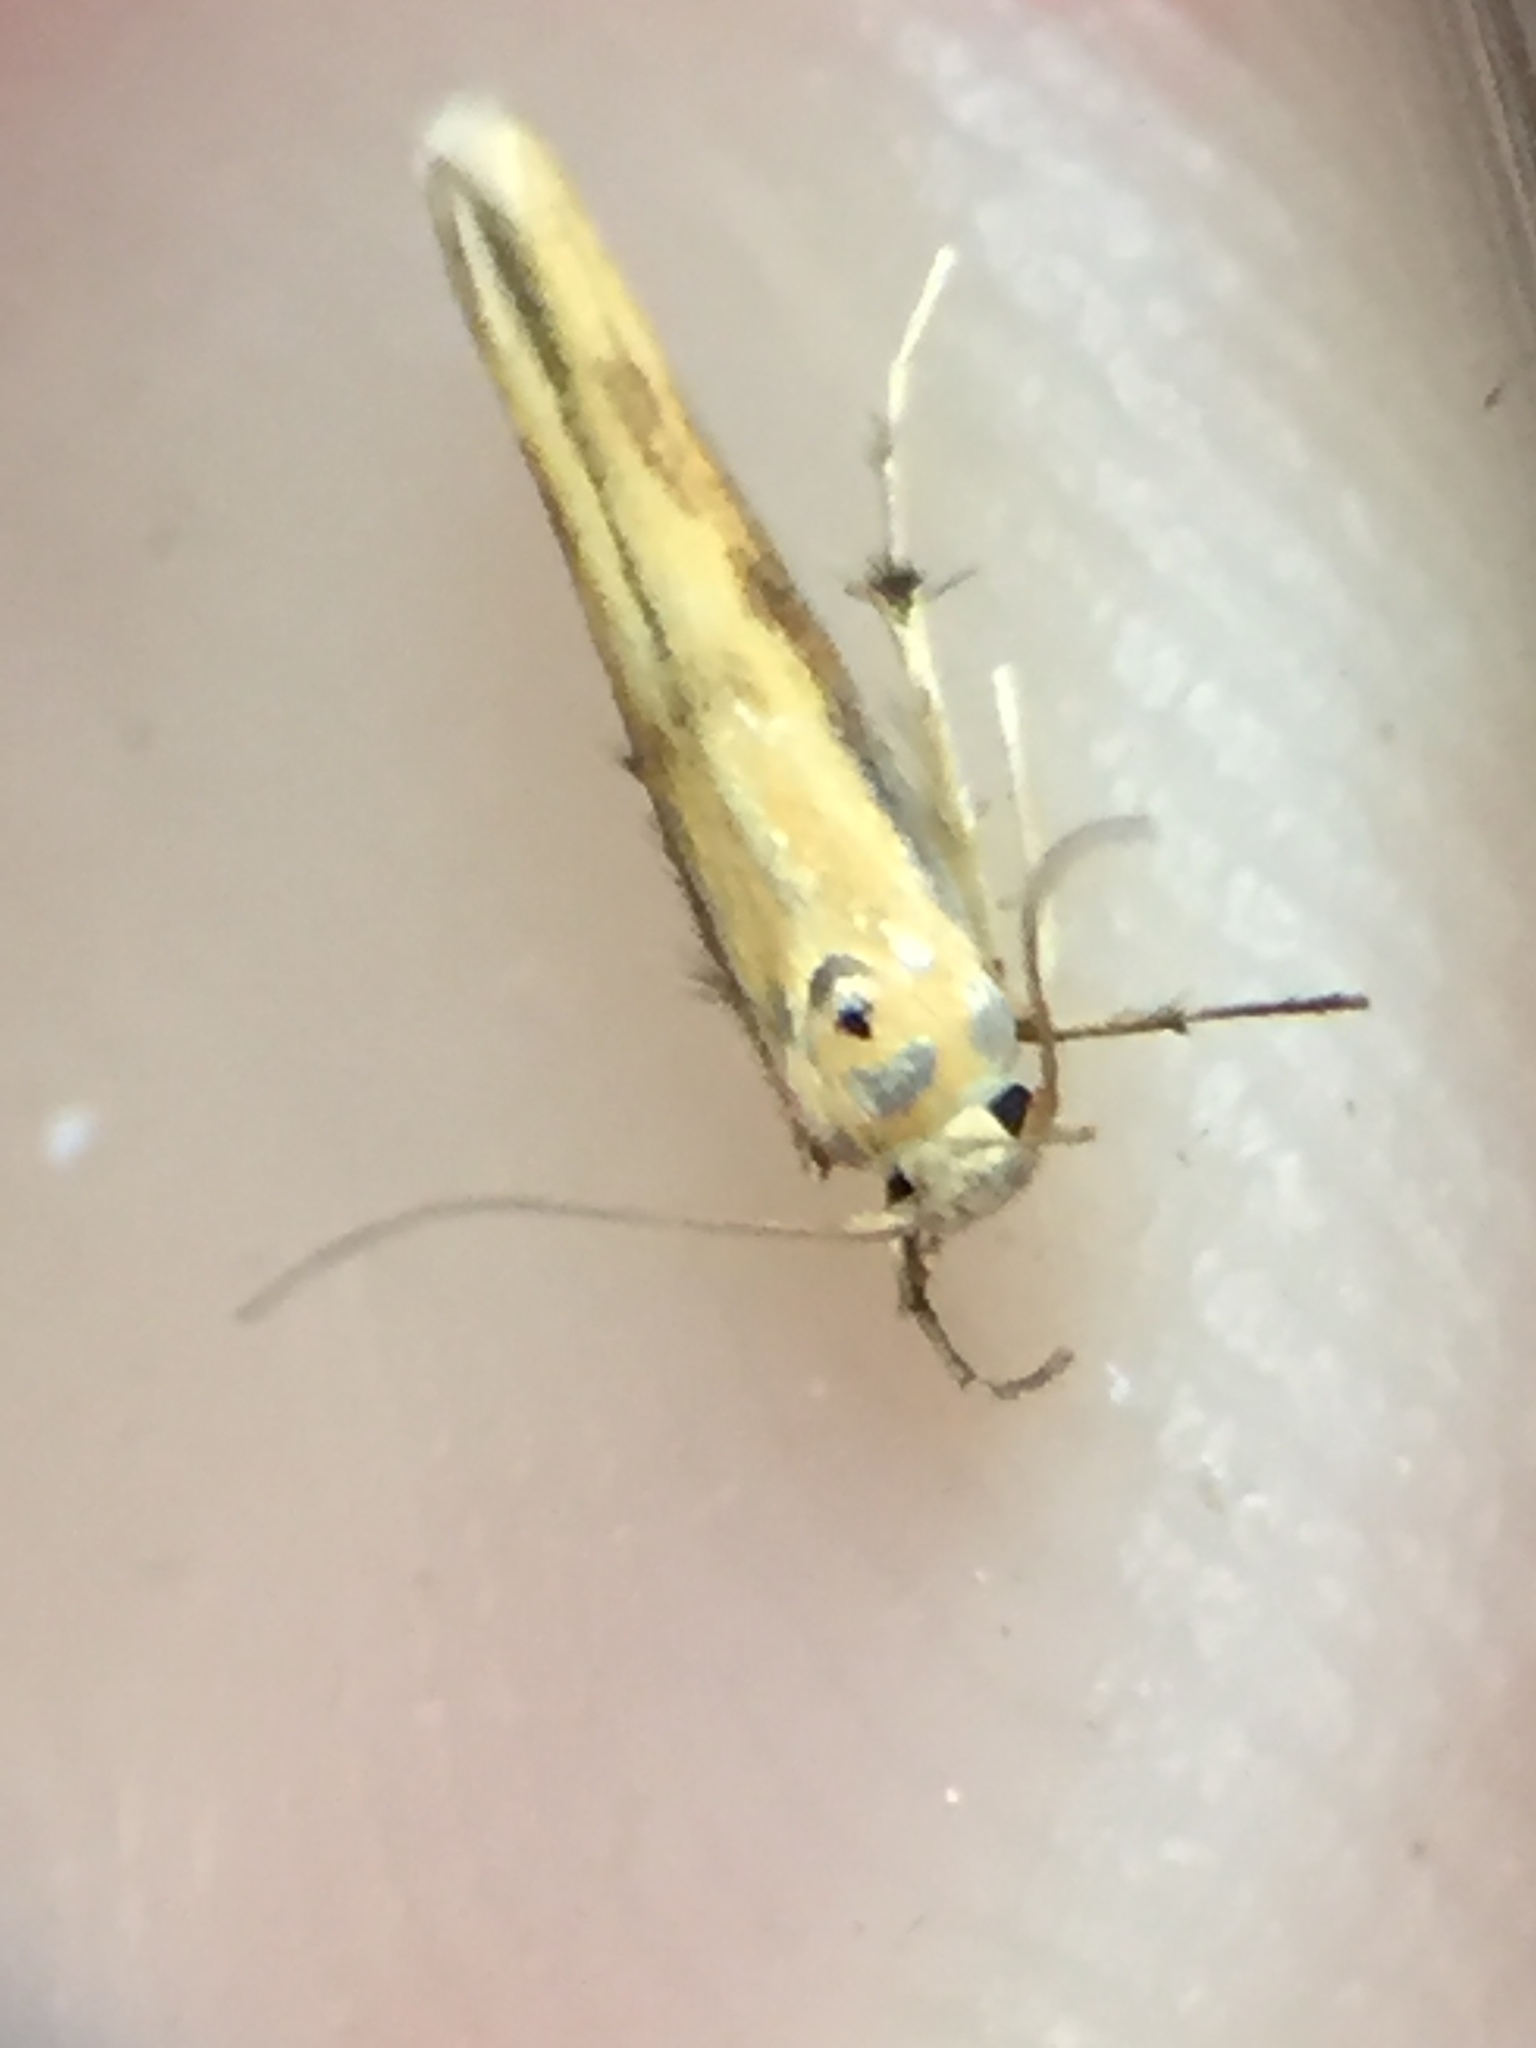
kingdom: Animalia
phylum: Arthropoda
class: Insecta
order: Lepidoptera
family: Stathmopodidae
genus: Stathmopoda
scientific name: Stathmopoda skelloni
